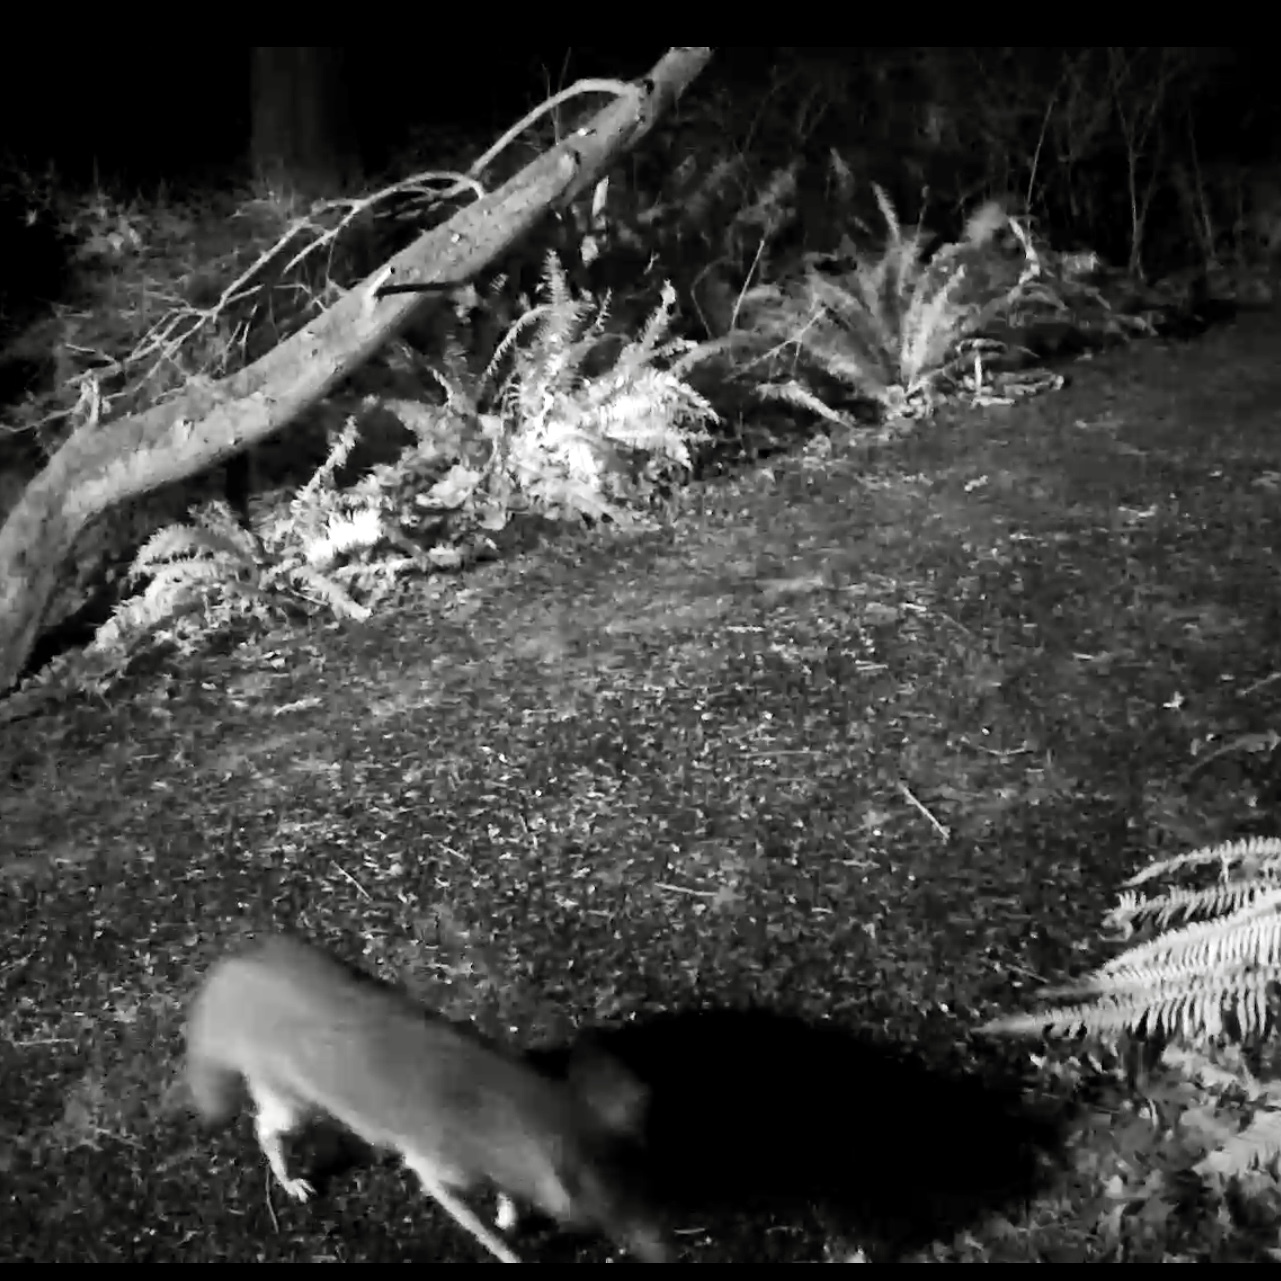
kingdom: Animalia
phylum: Chordata
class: Mammalia
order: Carnivora
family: Canidae
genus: Canis
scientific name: Canis latrans
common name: Coyote
